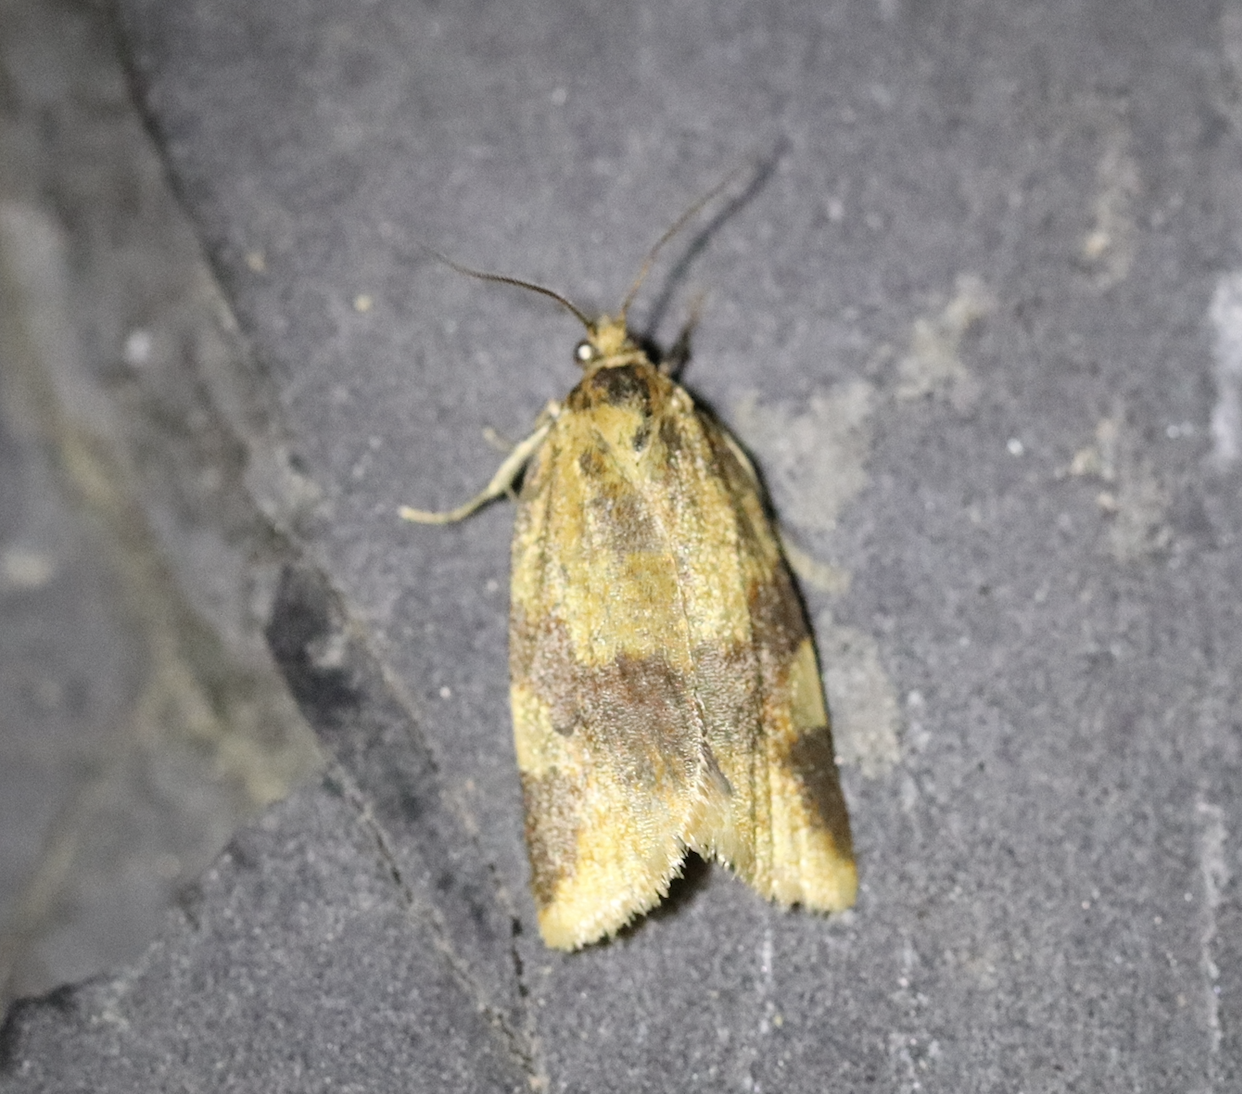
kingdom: Animalia
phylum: Arthropoda
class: Insecta
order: Lepidoptera
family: Tortricidae
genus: Epagoge
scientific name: Epagoge grotiana
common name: Brown-barred twist
